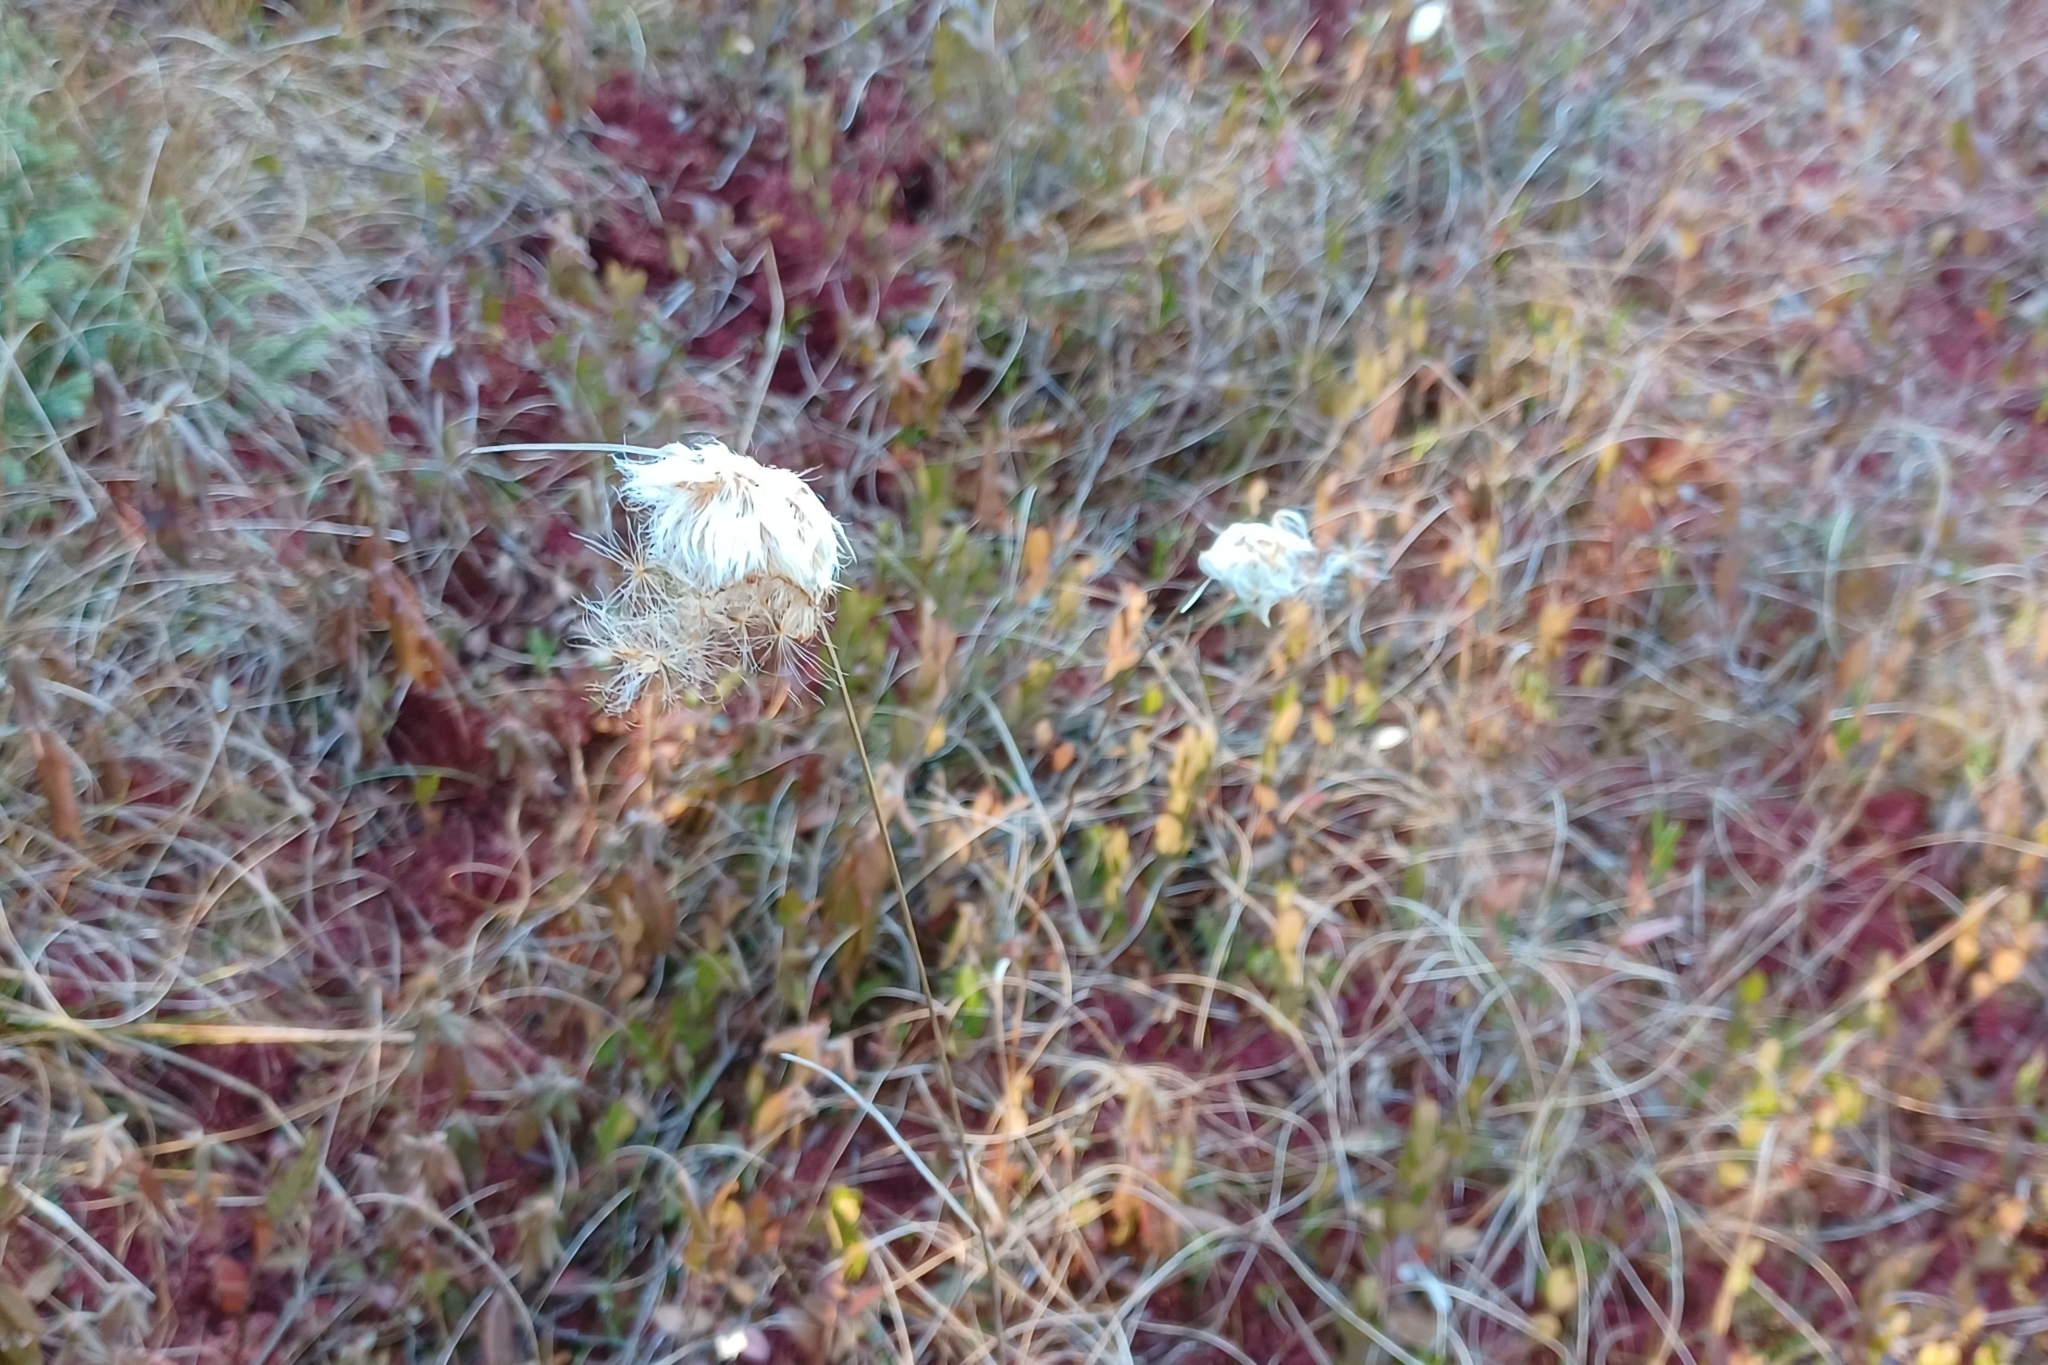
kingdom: Plantae
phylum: Tracheophyta
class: Liliopsida
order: Poales
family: Cyperaceae
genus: Eriophorum
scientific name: Eriophorum virginicum
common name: Tawny cottongrass
